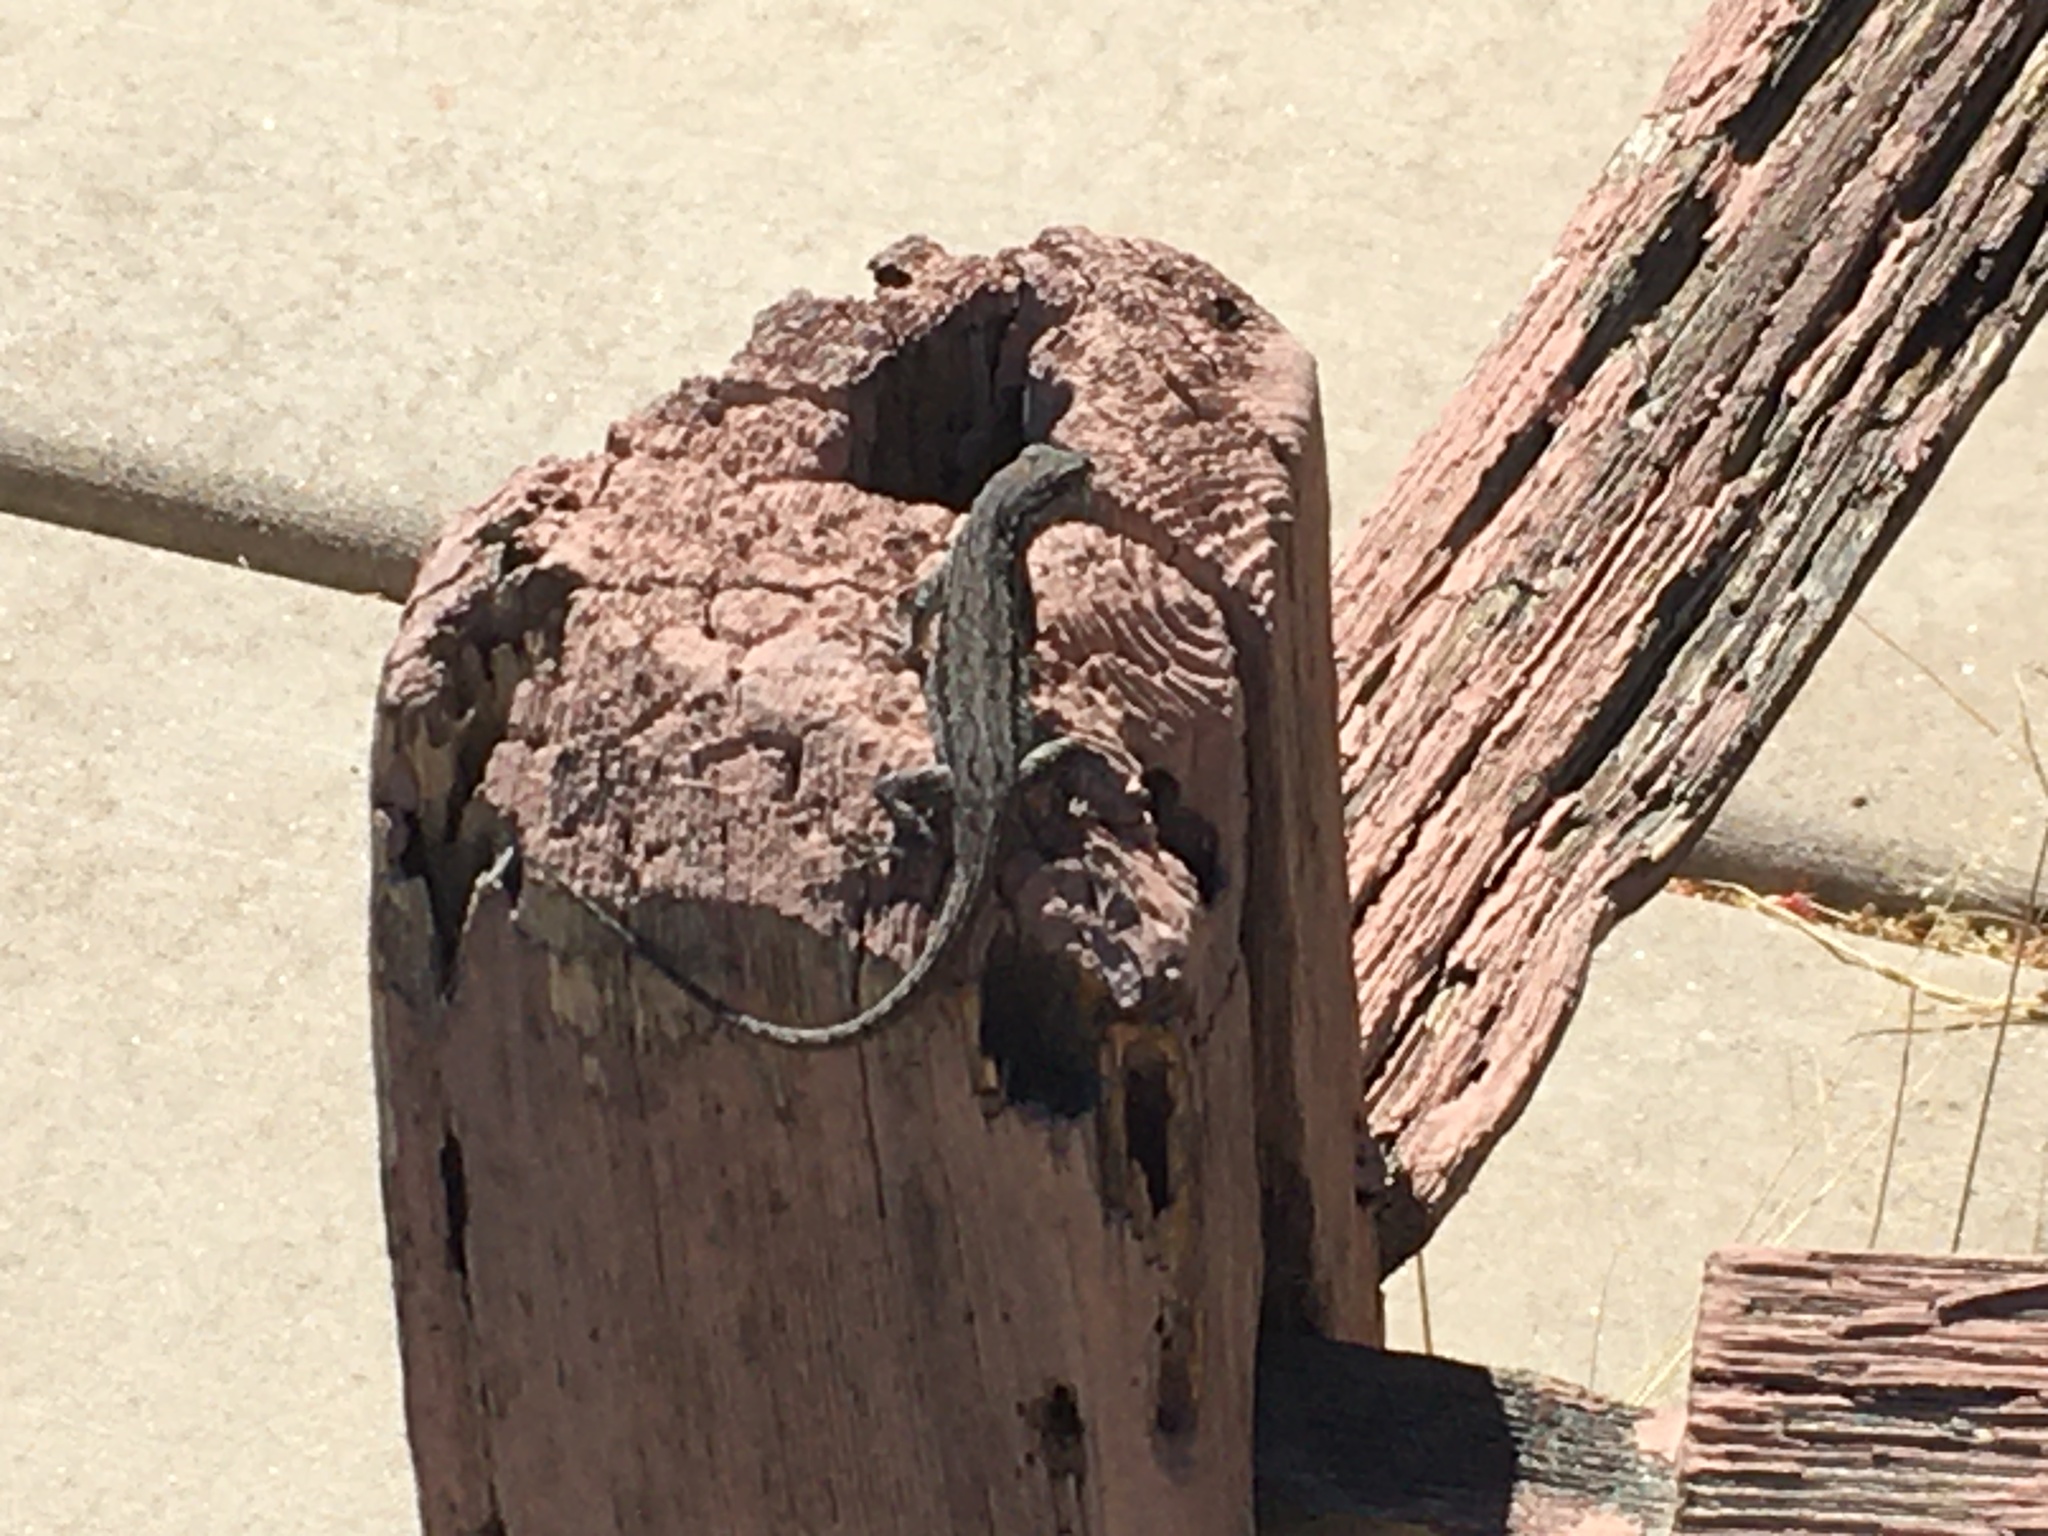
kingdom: Animalia
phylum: Chordata
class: Squamata
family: Phrynosomatidae
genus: Urosaurus
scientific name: Urosaurus ornatus
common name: Ornate tree lizard
